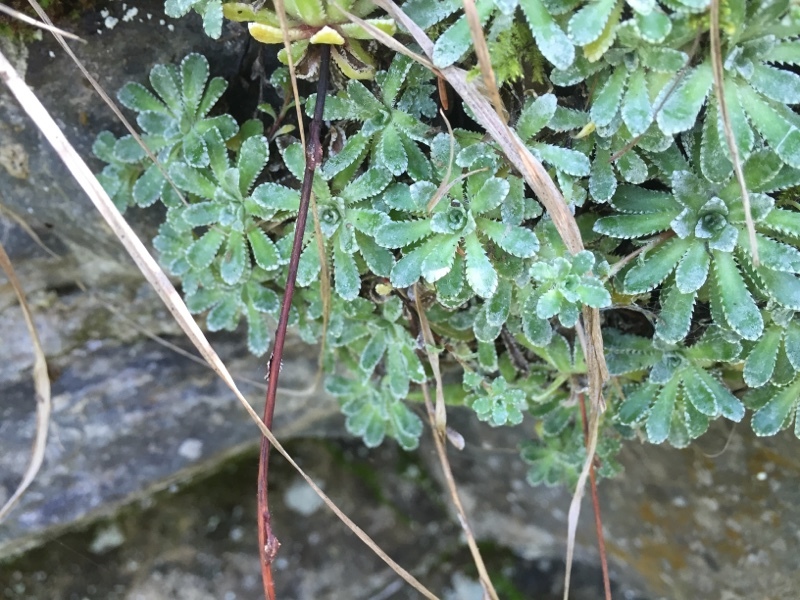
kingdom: Plantae
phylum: Tracheophyta
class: Magnoliopsida
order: Saxifragales
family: Saxifragaceae
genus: Saxifraga
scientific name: Saxifraga paniculata
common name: Livelong saxifrage
